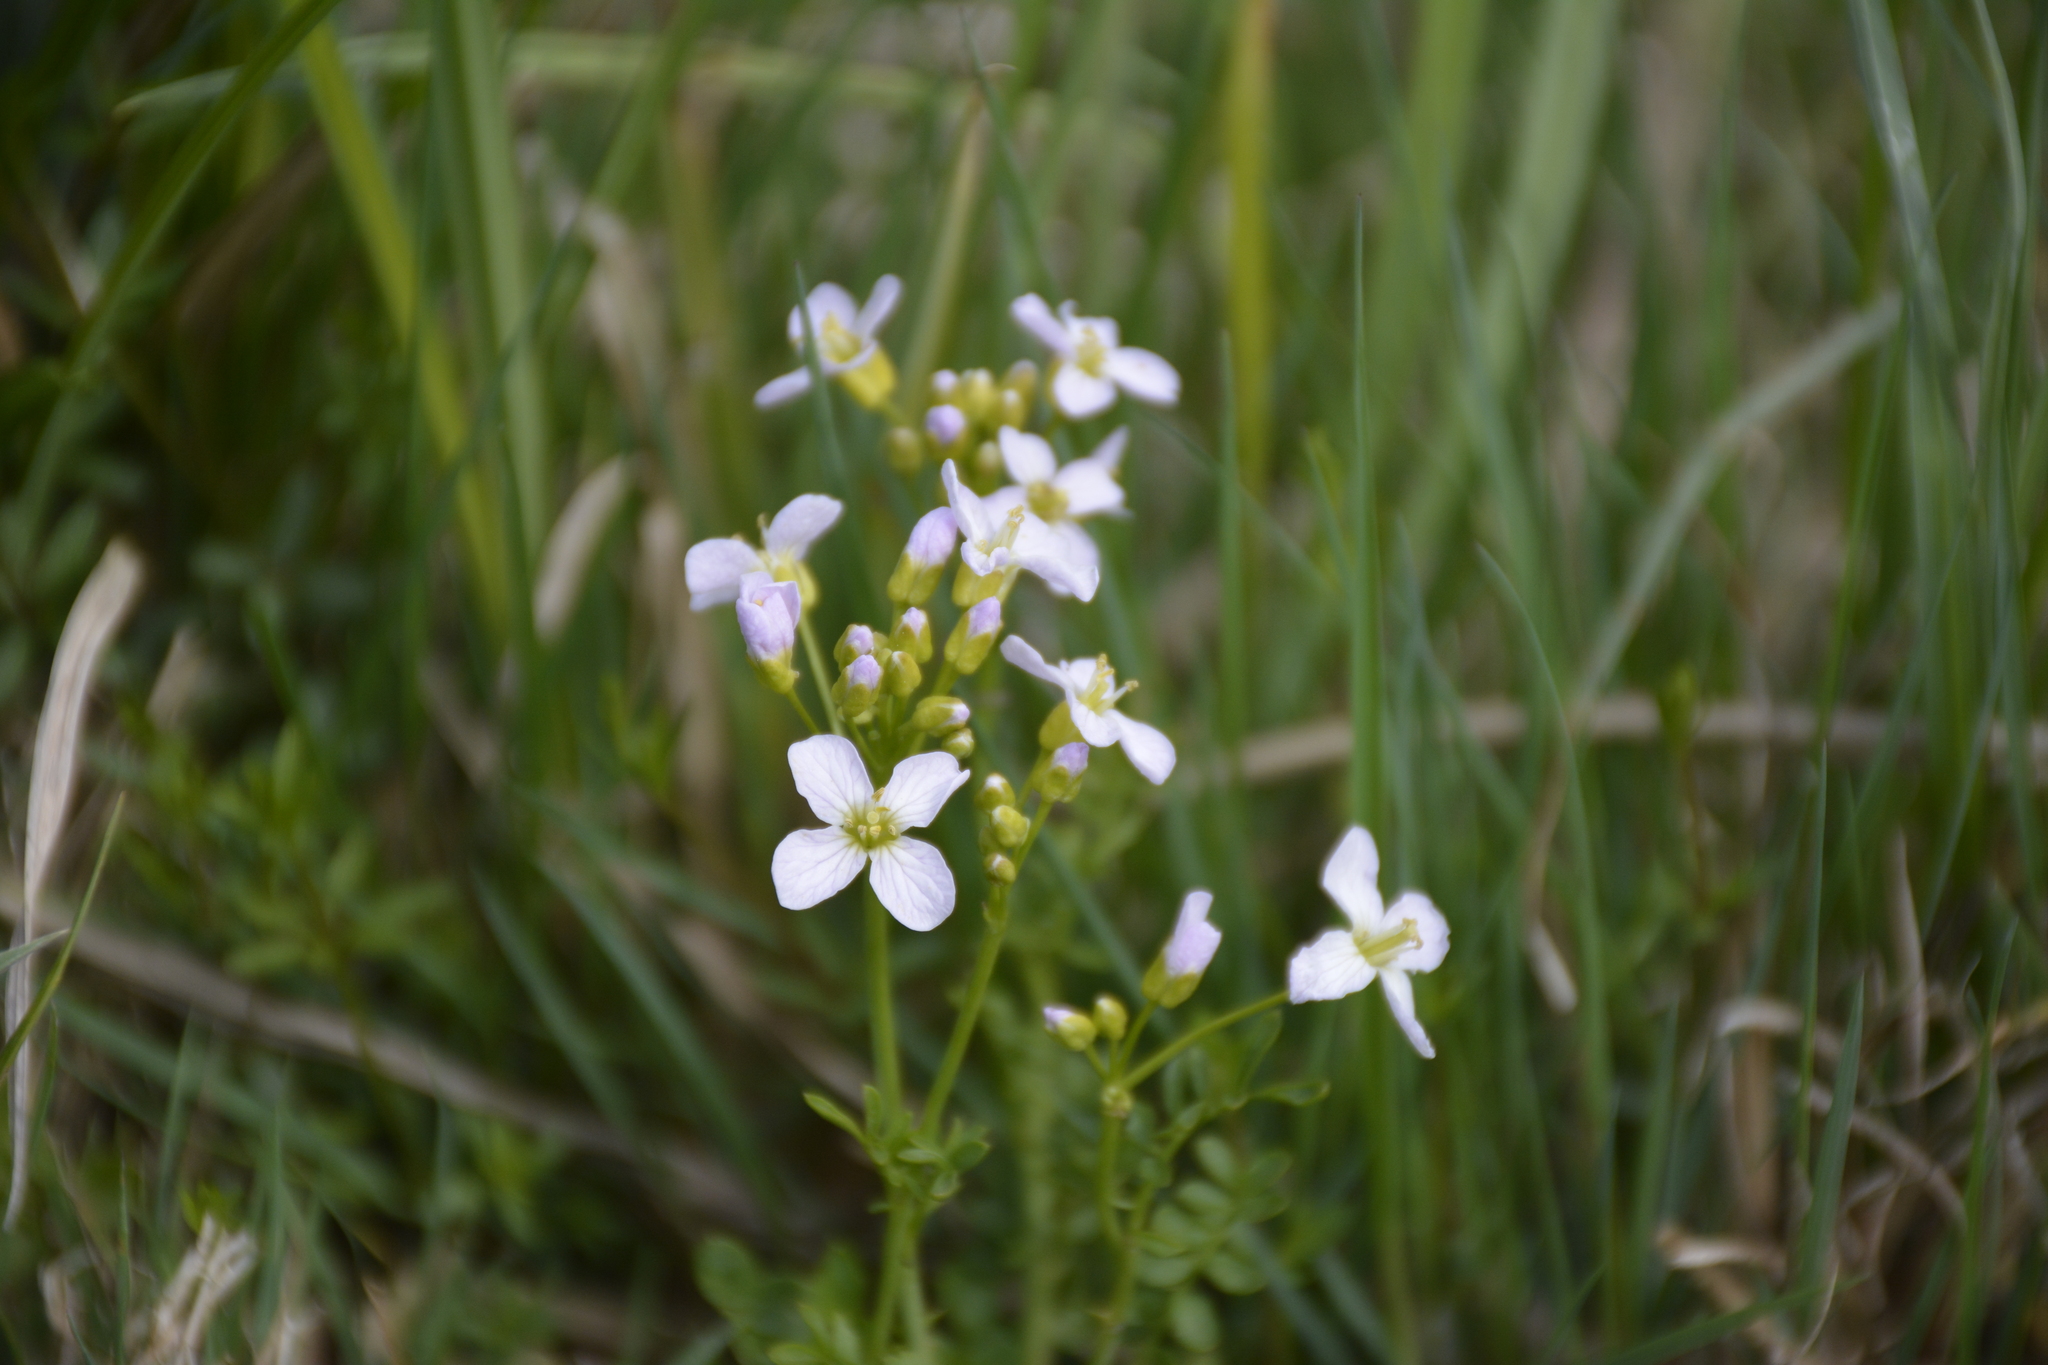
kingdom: Plantae
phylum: Tracheophyta
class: Magnoliopsida
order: Brassicales
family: Brassicaceae
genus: Cardamine
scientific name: Cardamine dentata
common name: Toothed bittercress
